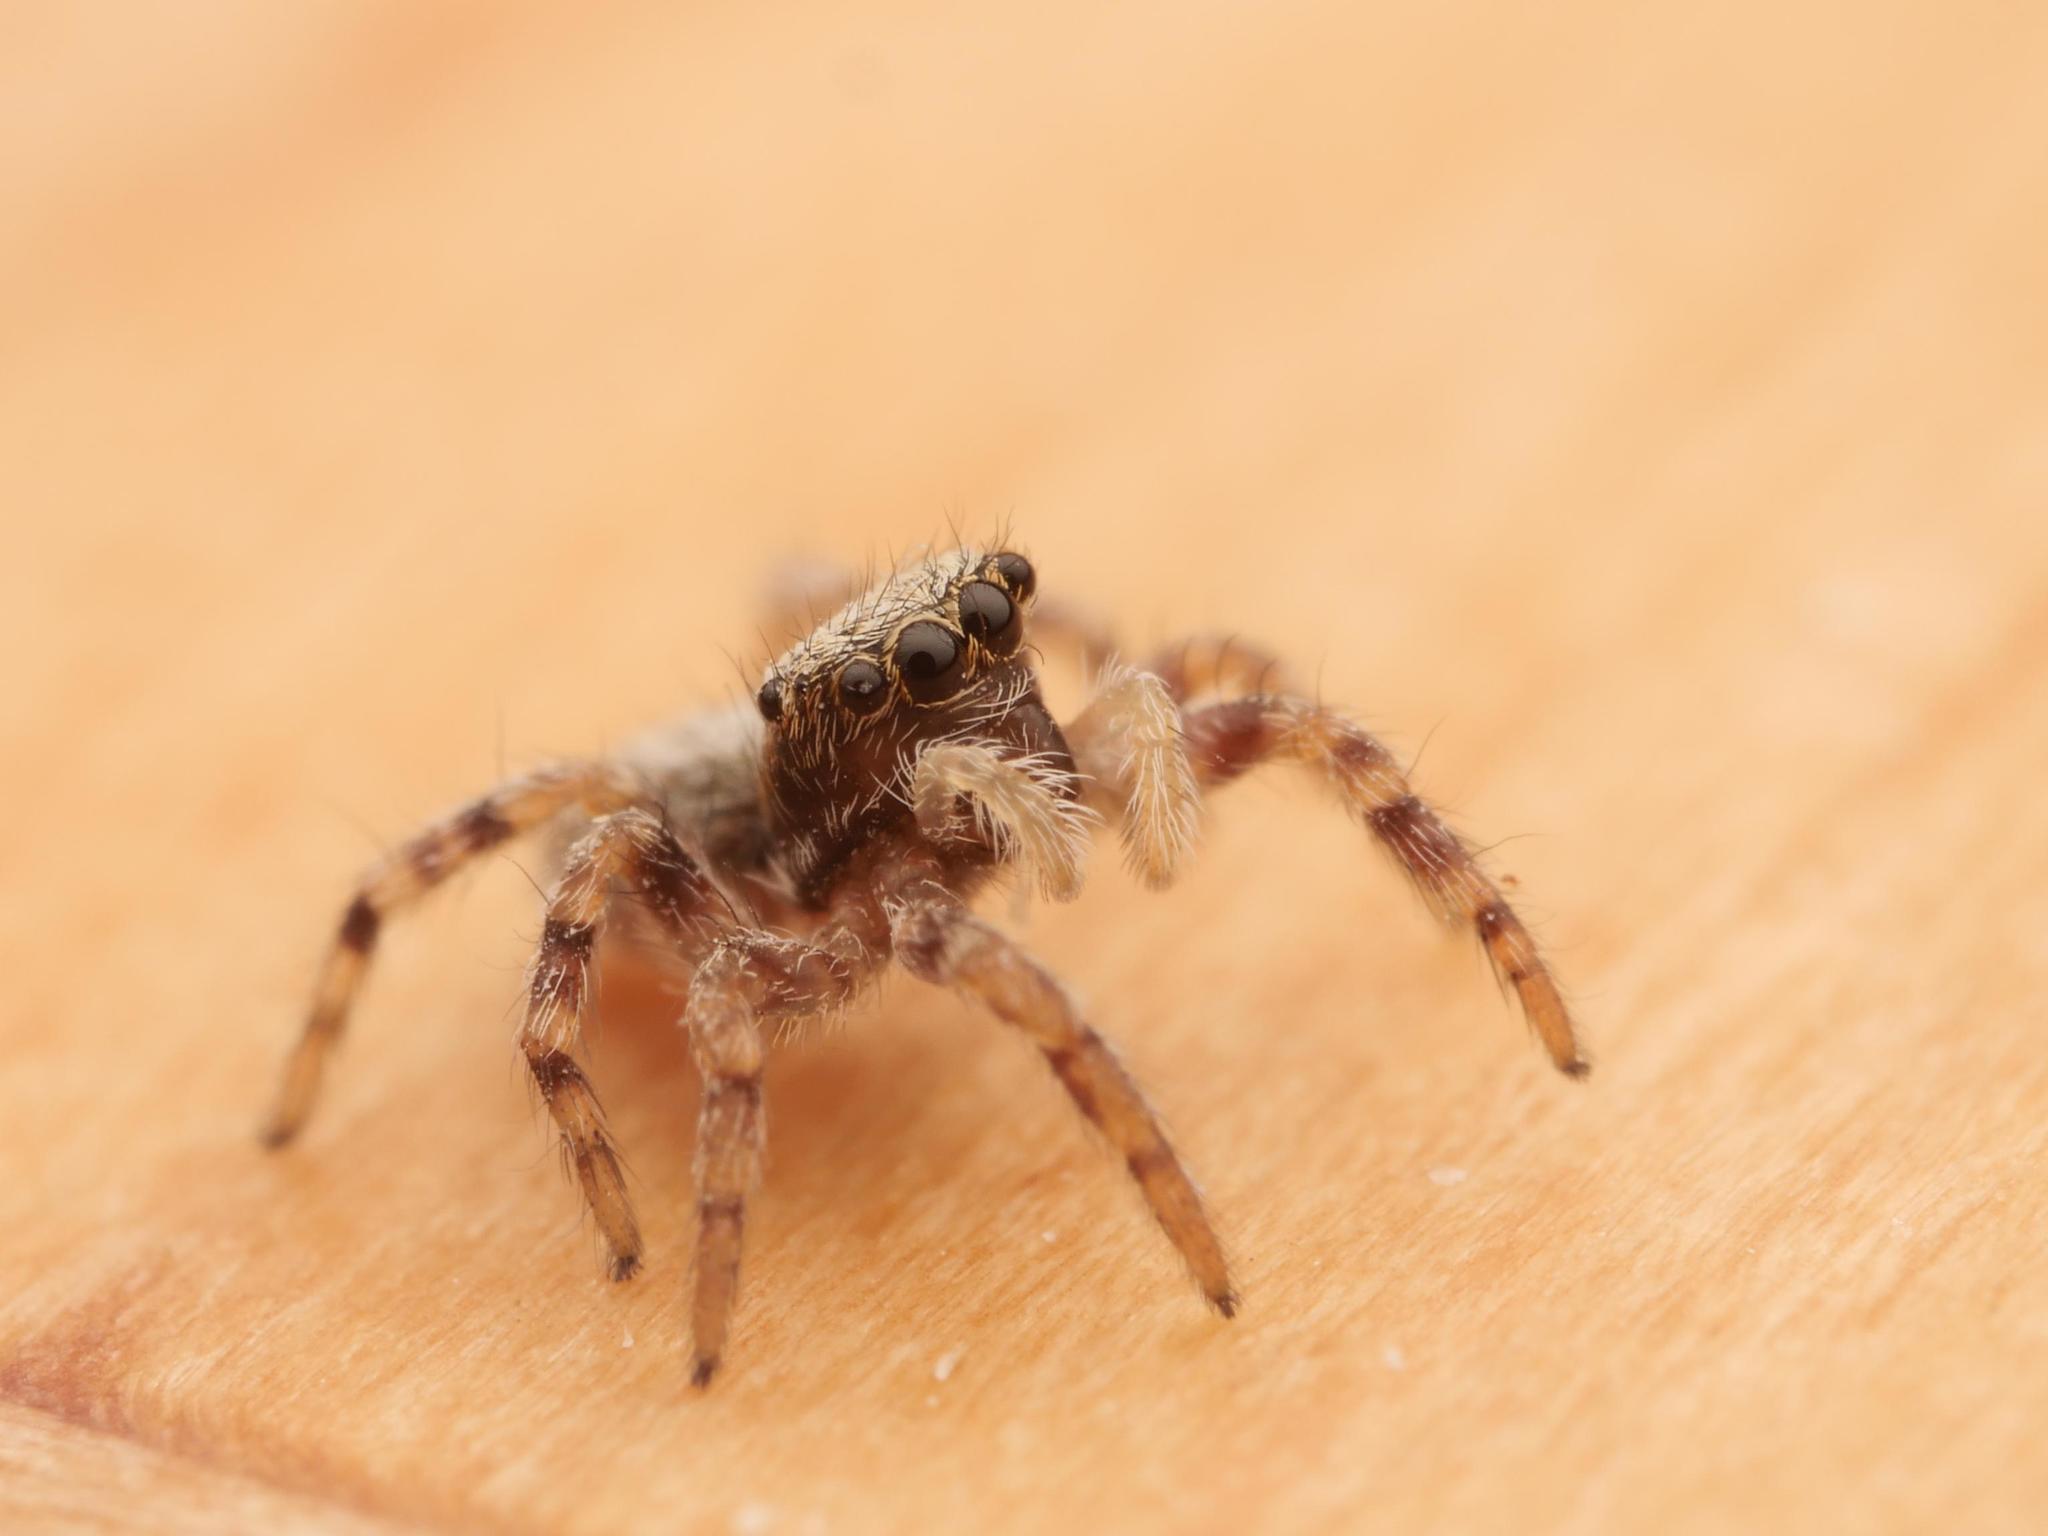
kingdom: Animalia
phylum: Arthropoda
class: Arachnida
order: Araneae
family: Salticidae
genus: Pseudeuophrys
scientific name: Pseudeuophrys lanigera
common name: Jumping spider
